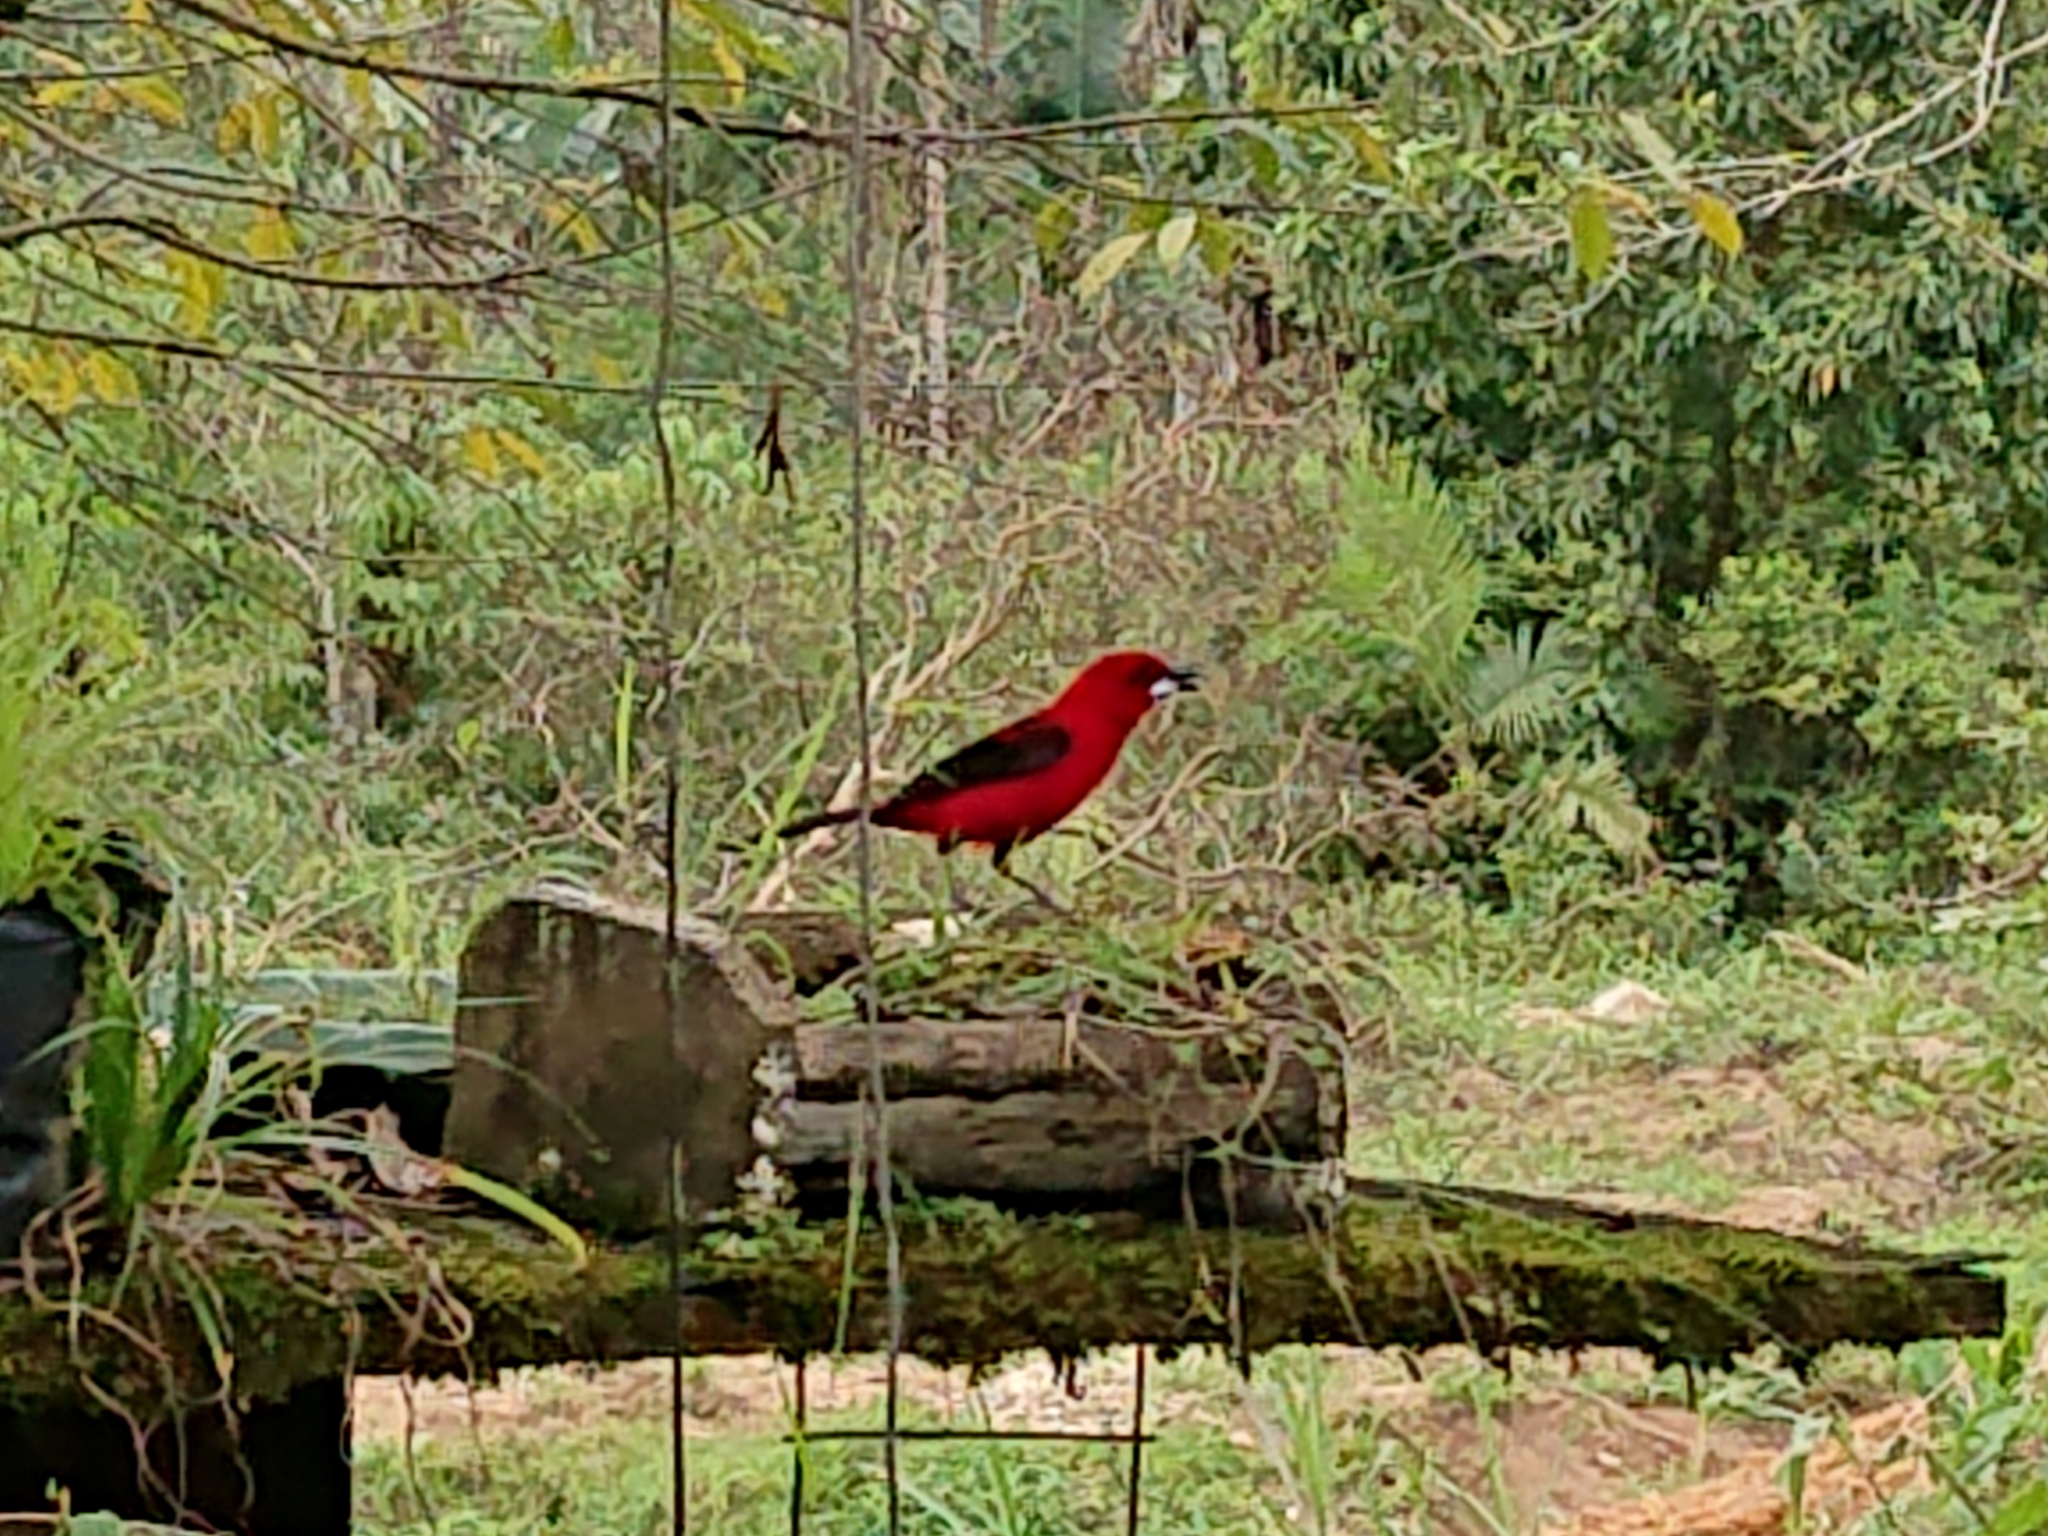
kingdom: Animalia
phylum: Chordata
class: Aves
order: Passeriformes
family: Thraupidae
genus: Ramphocelus
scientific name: Ramphocelus bresilia
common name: Brazilian tanager
